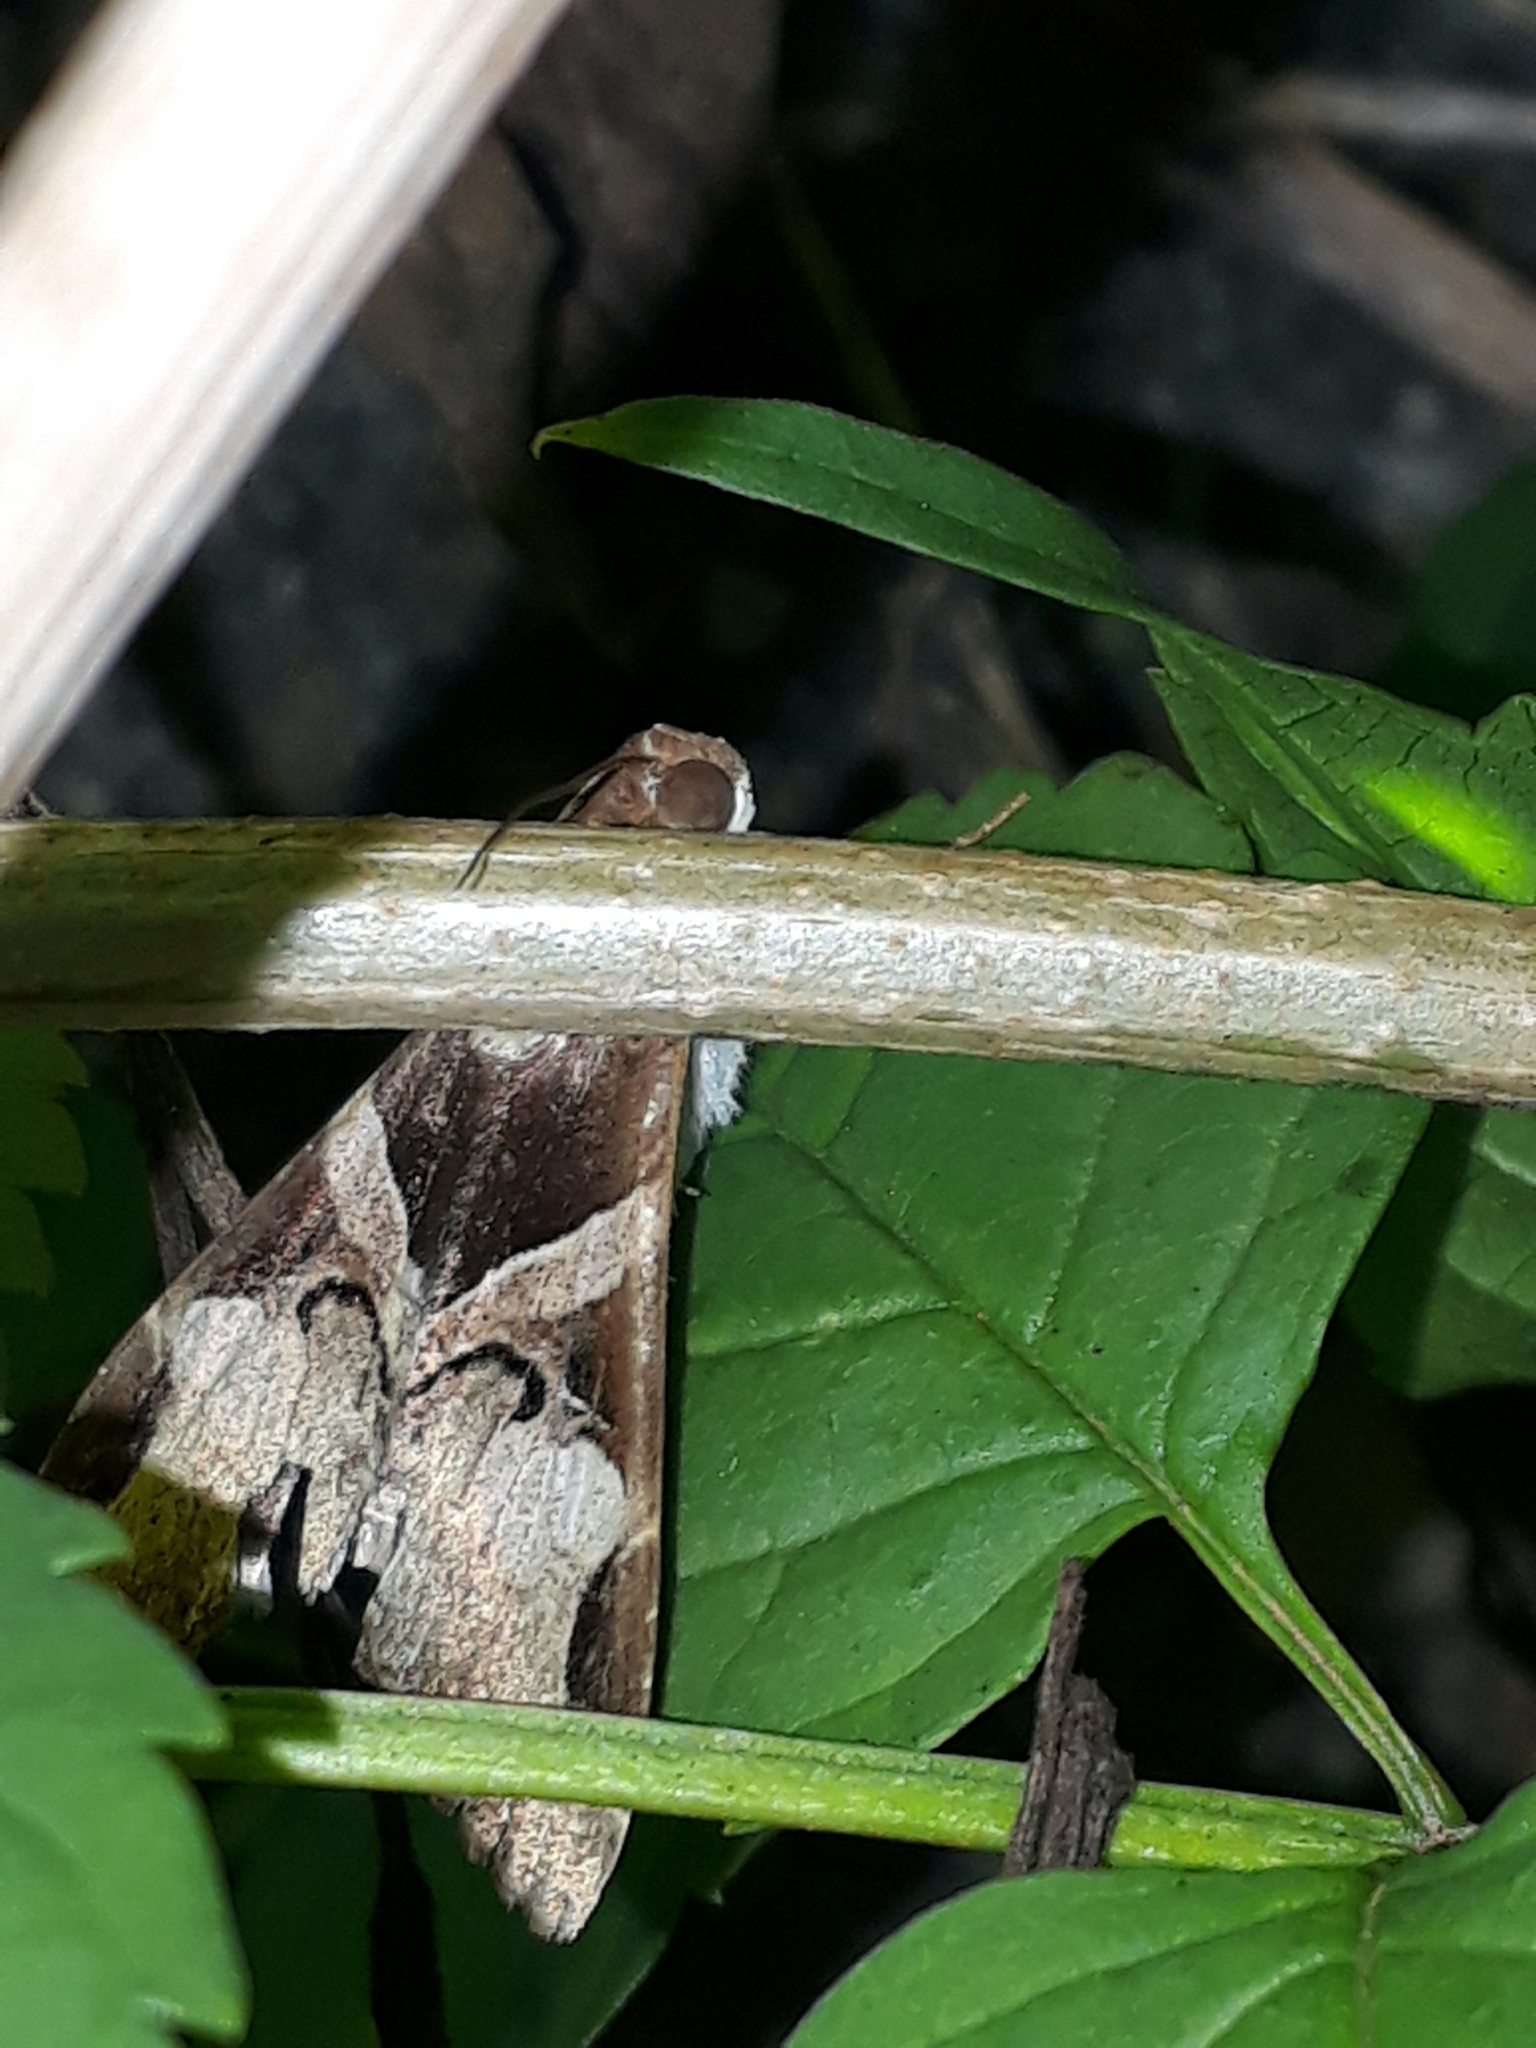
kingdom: Animalia
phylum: Arthropoda
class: Insecta
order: Lepidoptera
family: Erebidae
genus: Melipotis
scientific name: Melipotis fasciolaris
